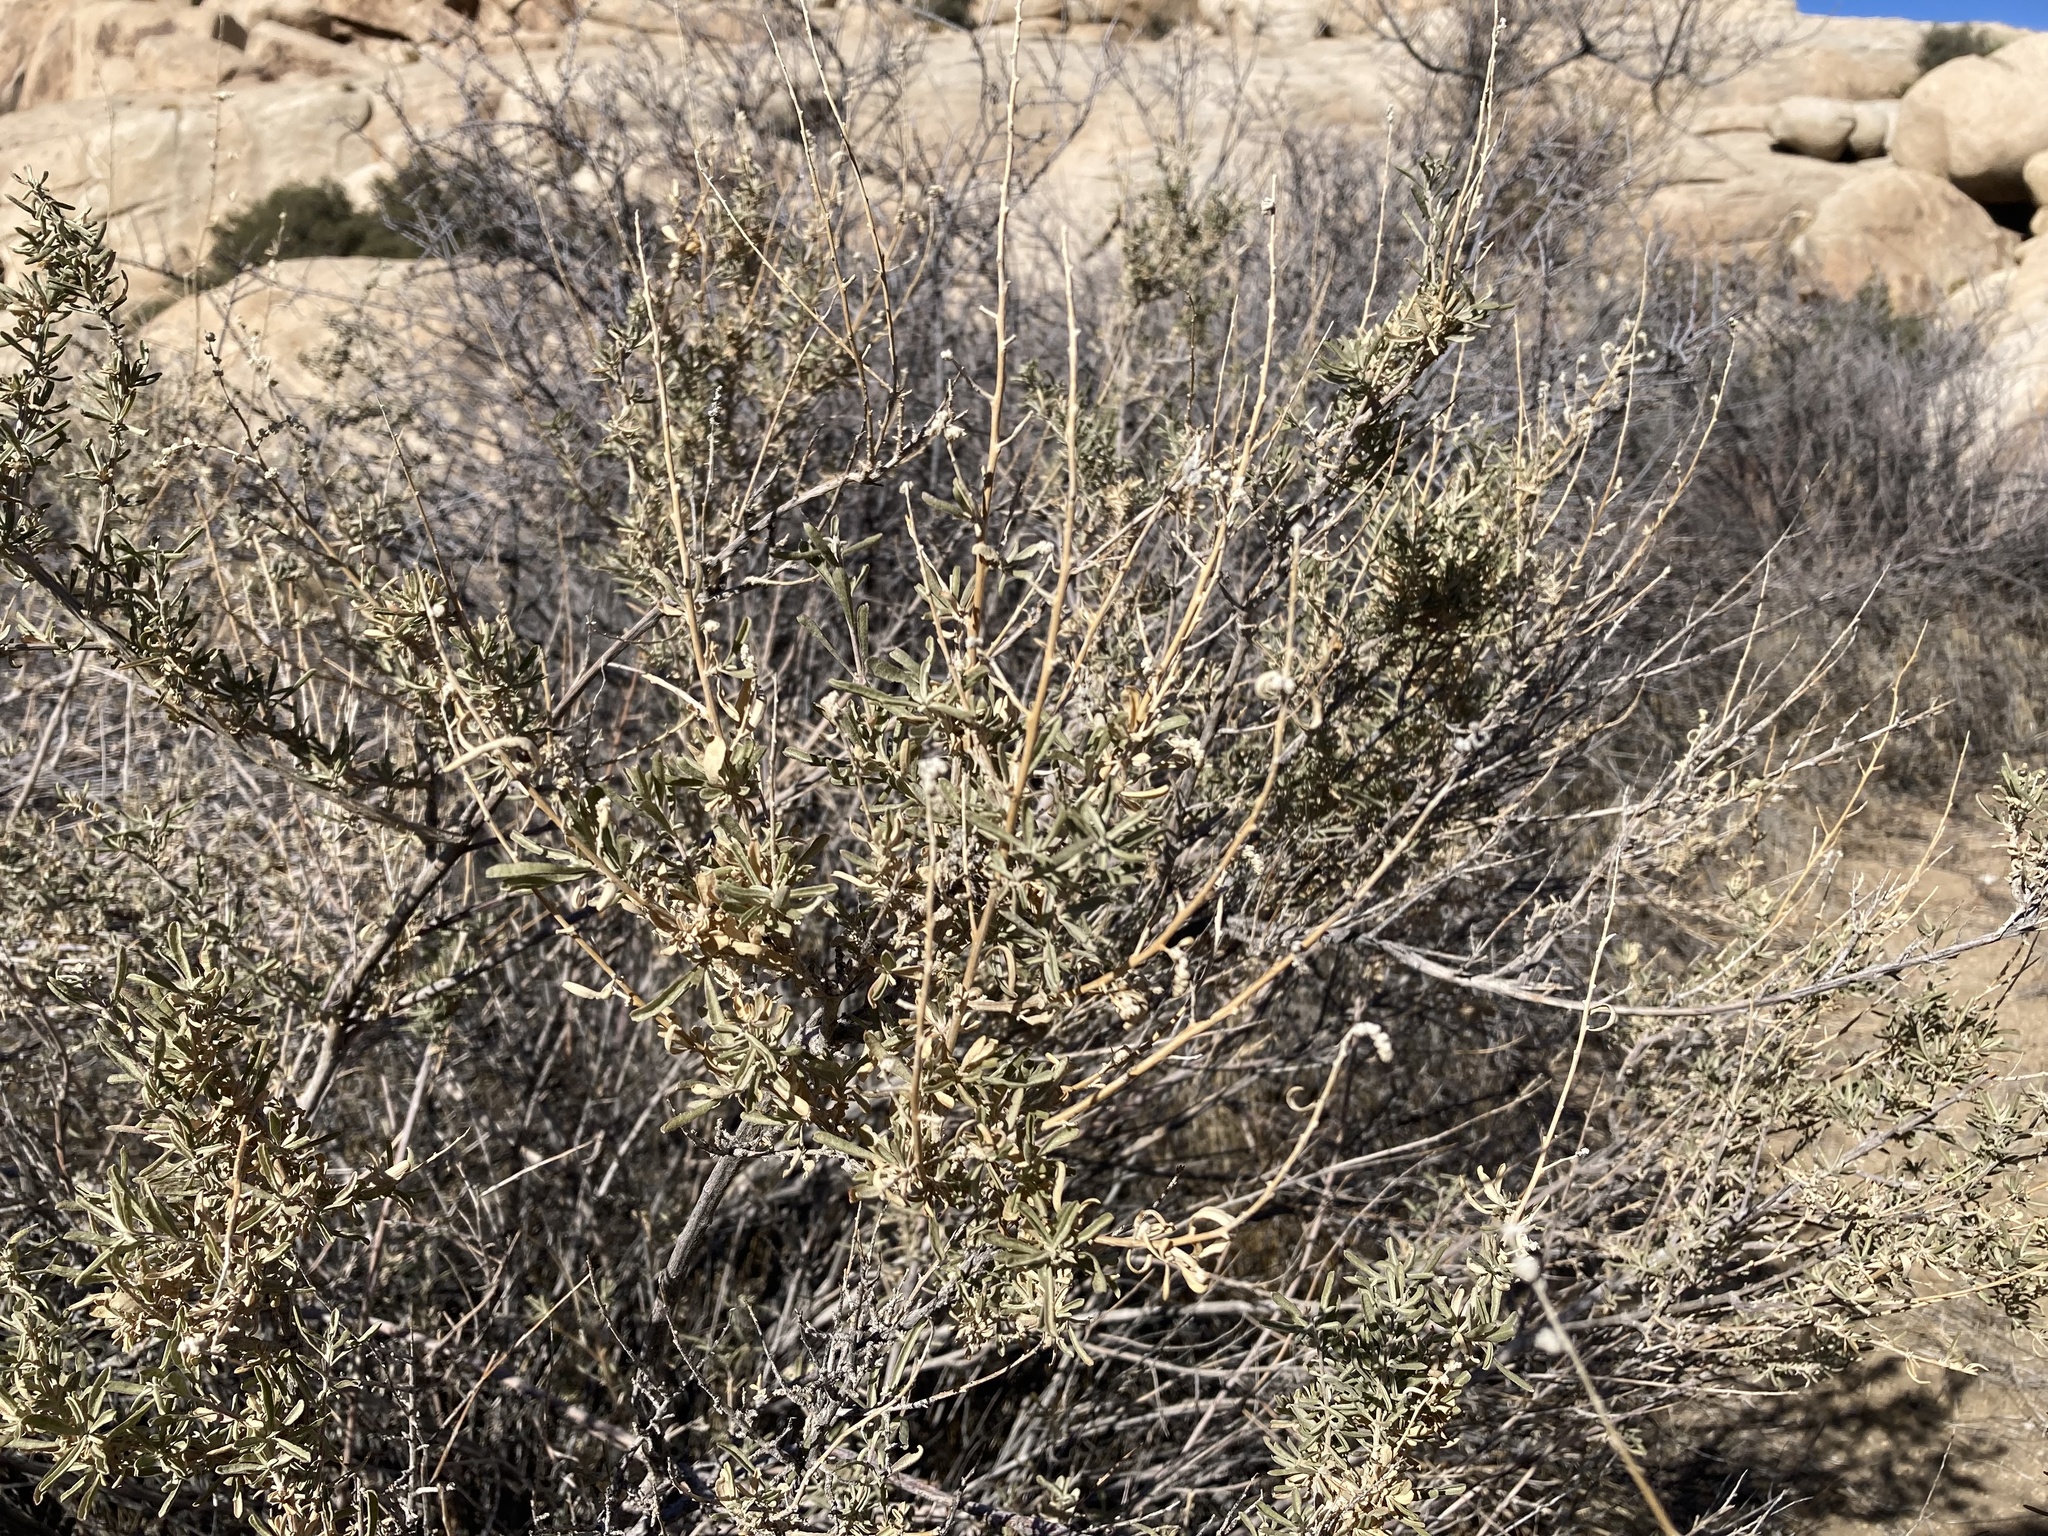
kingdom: Plantae
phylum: Tracheophyta
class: Magnoliopsida
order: Caryophyllales
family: Amaranthaceae
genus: Atriplex
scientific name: Atriplex canescens
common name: Four-wing saltbush
